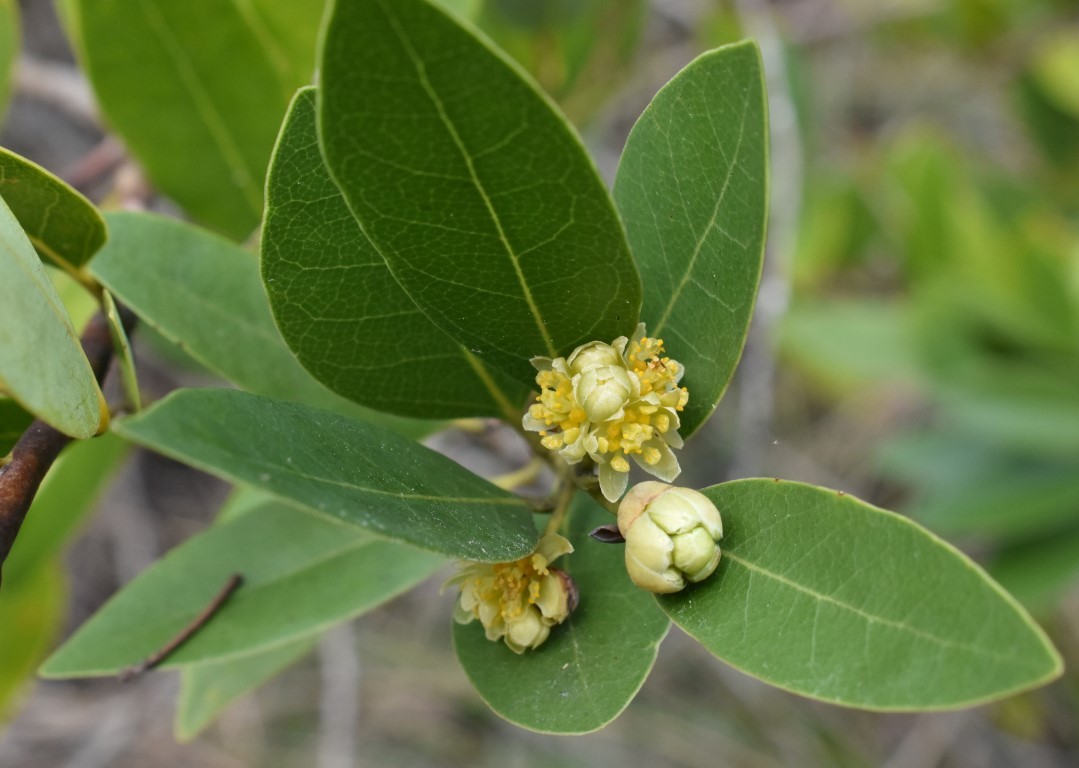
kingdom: Plantae
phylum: Tracheophyta
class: Magnoliopsida
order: Laurales
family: Lauraceae
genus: Umbellularia
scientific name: Umbellularia californica
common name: California bay
